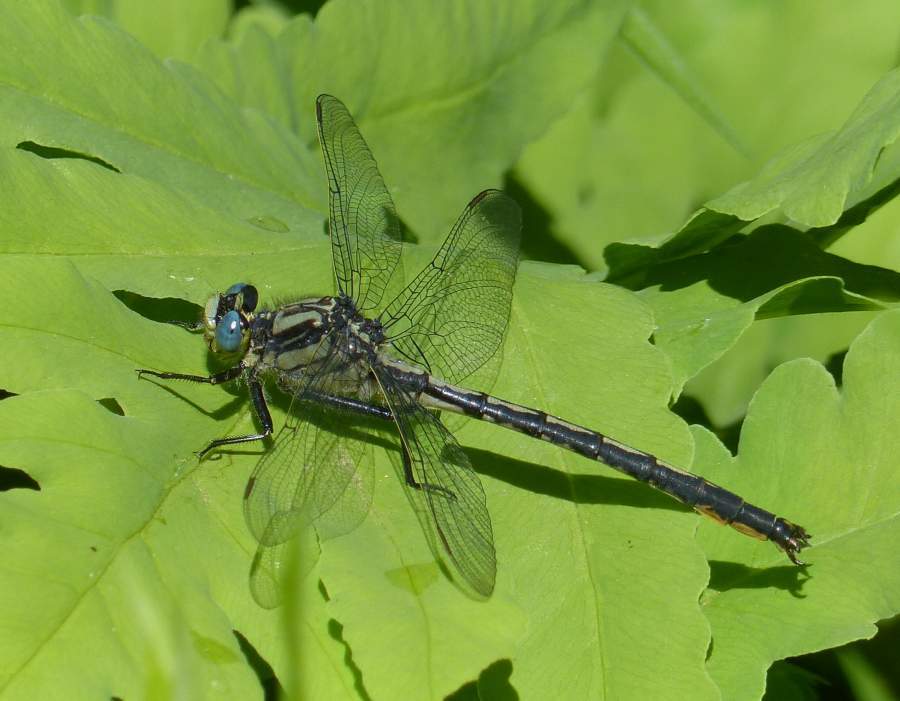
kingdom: Animalia
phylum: Arthropoda
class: Insecta
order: Odonata
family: Gomphidae
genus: Arigomphus
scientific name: Arigomphus cornutus
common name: Horned clubtail
